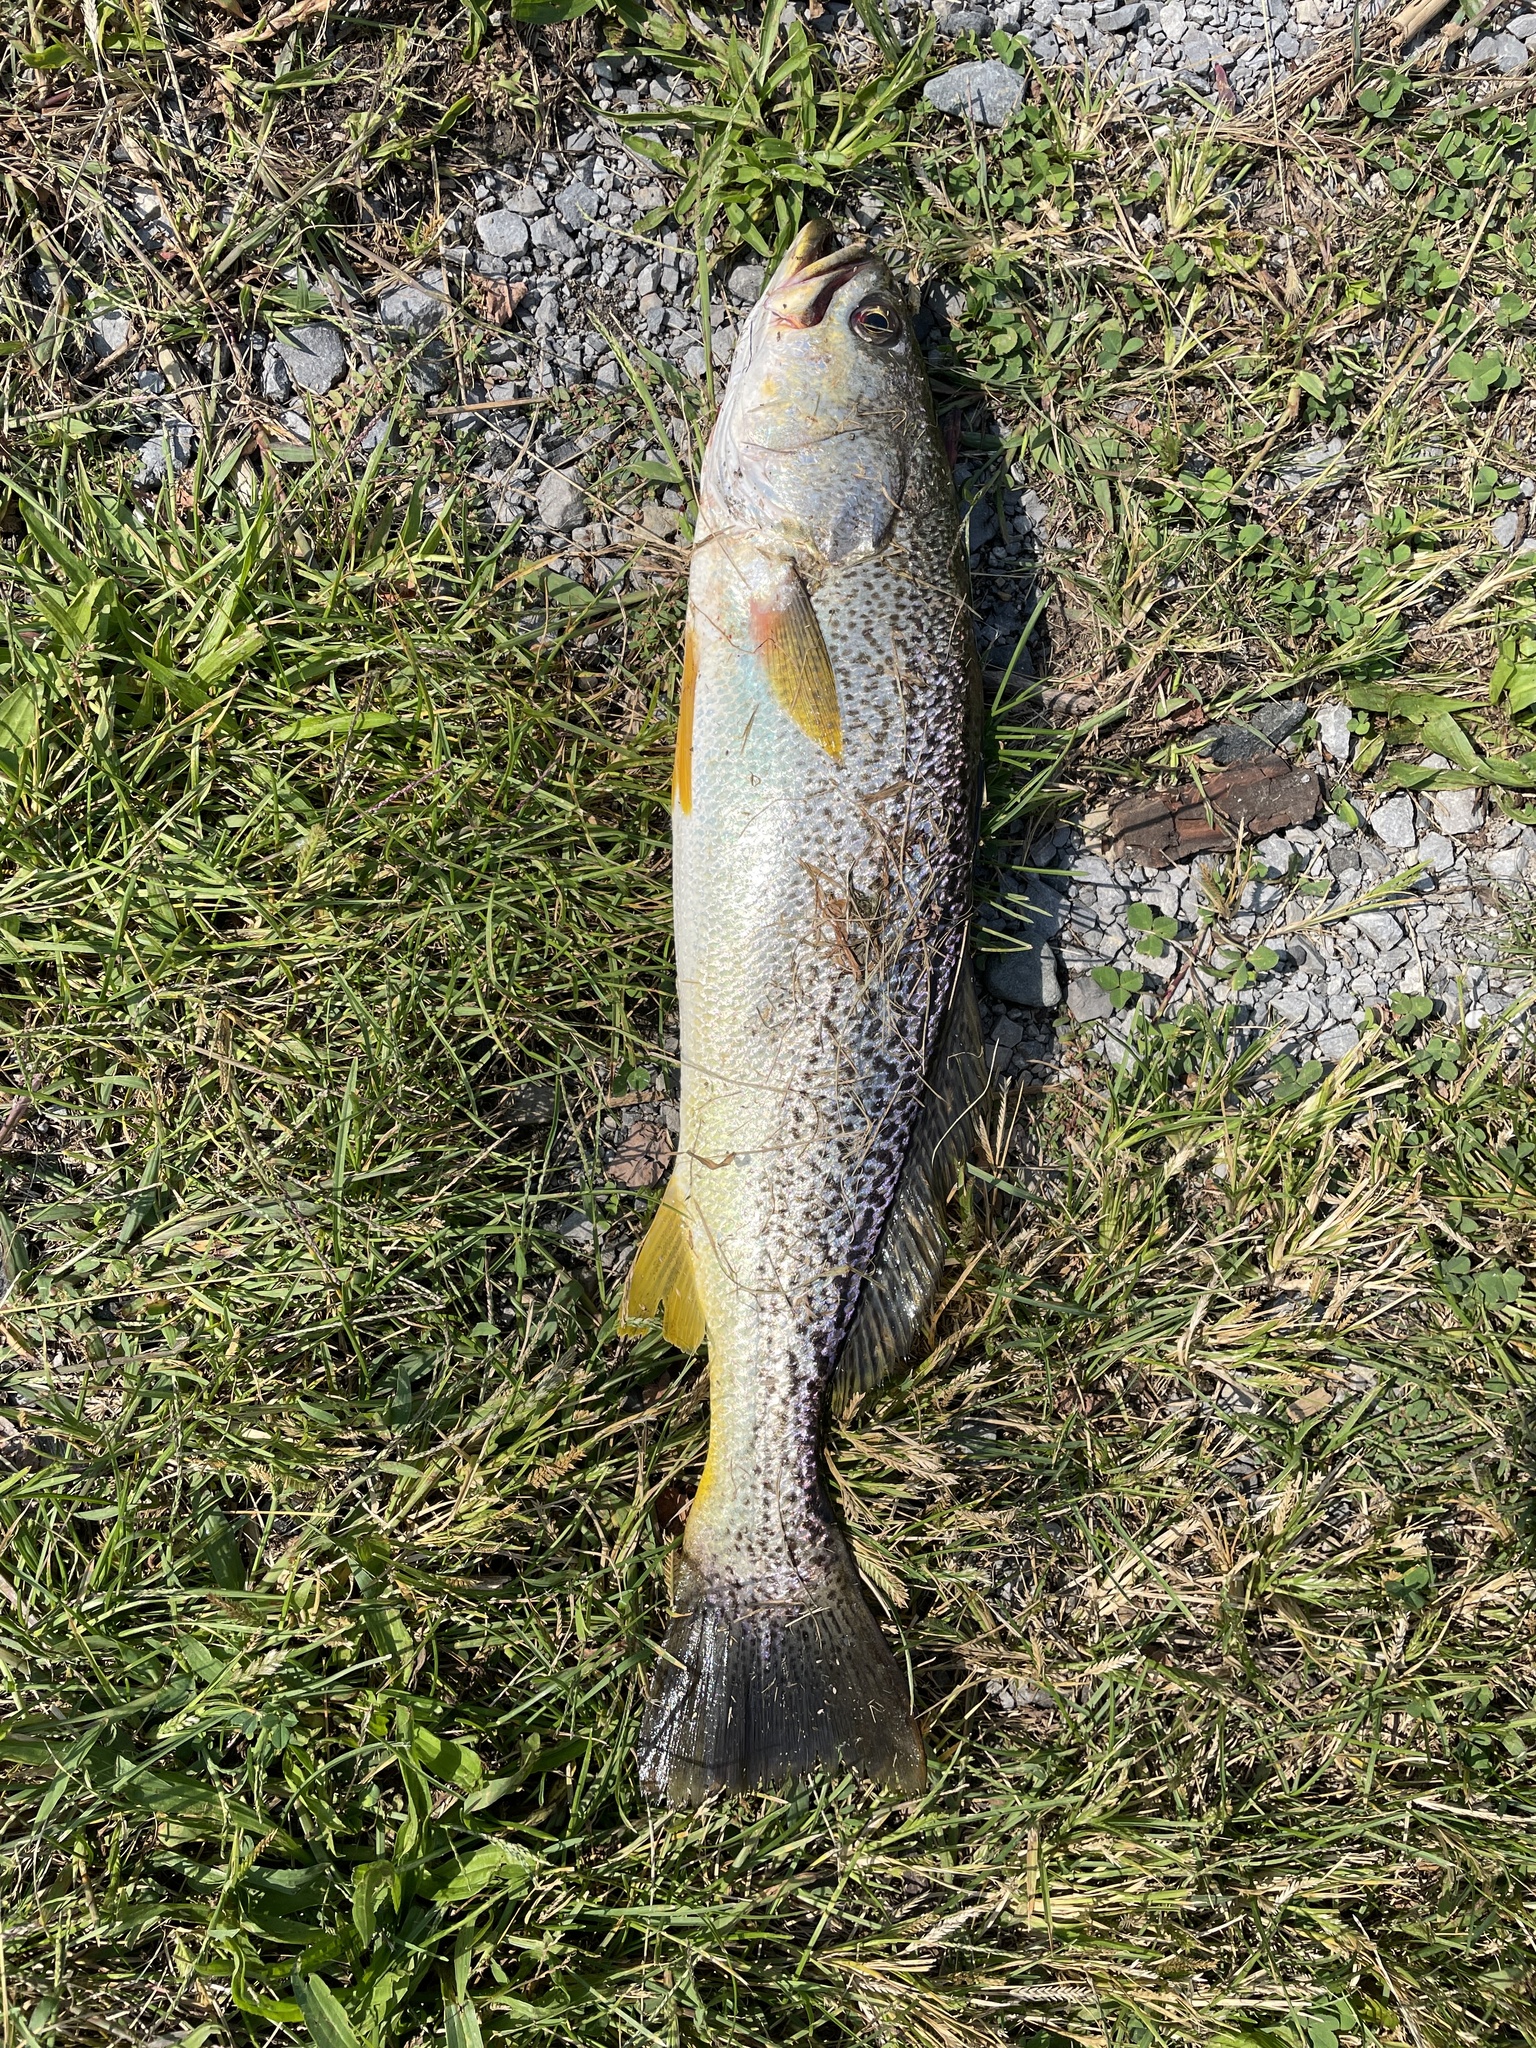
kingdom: Animalia
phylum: Chordata
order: Perciformes
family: Sciaenidae
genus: Cynoscion
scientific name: Cynoscion regalis
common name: Squeteague
